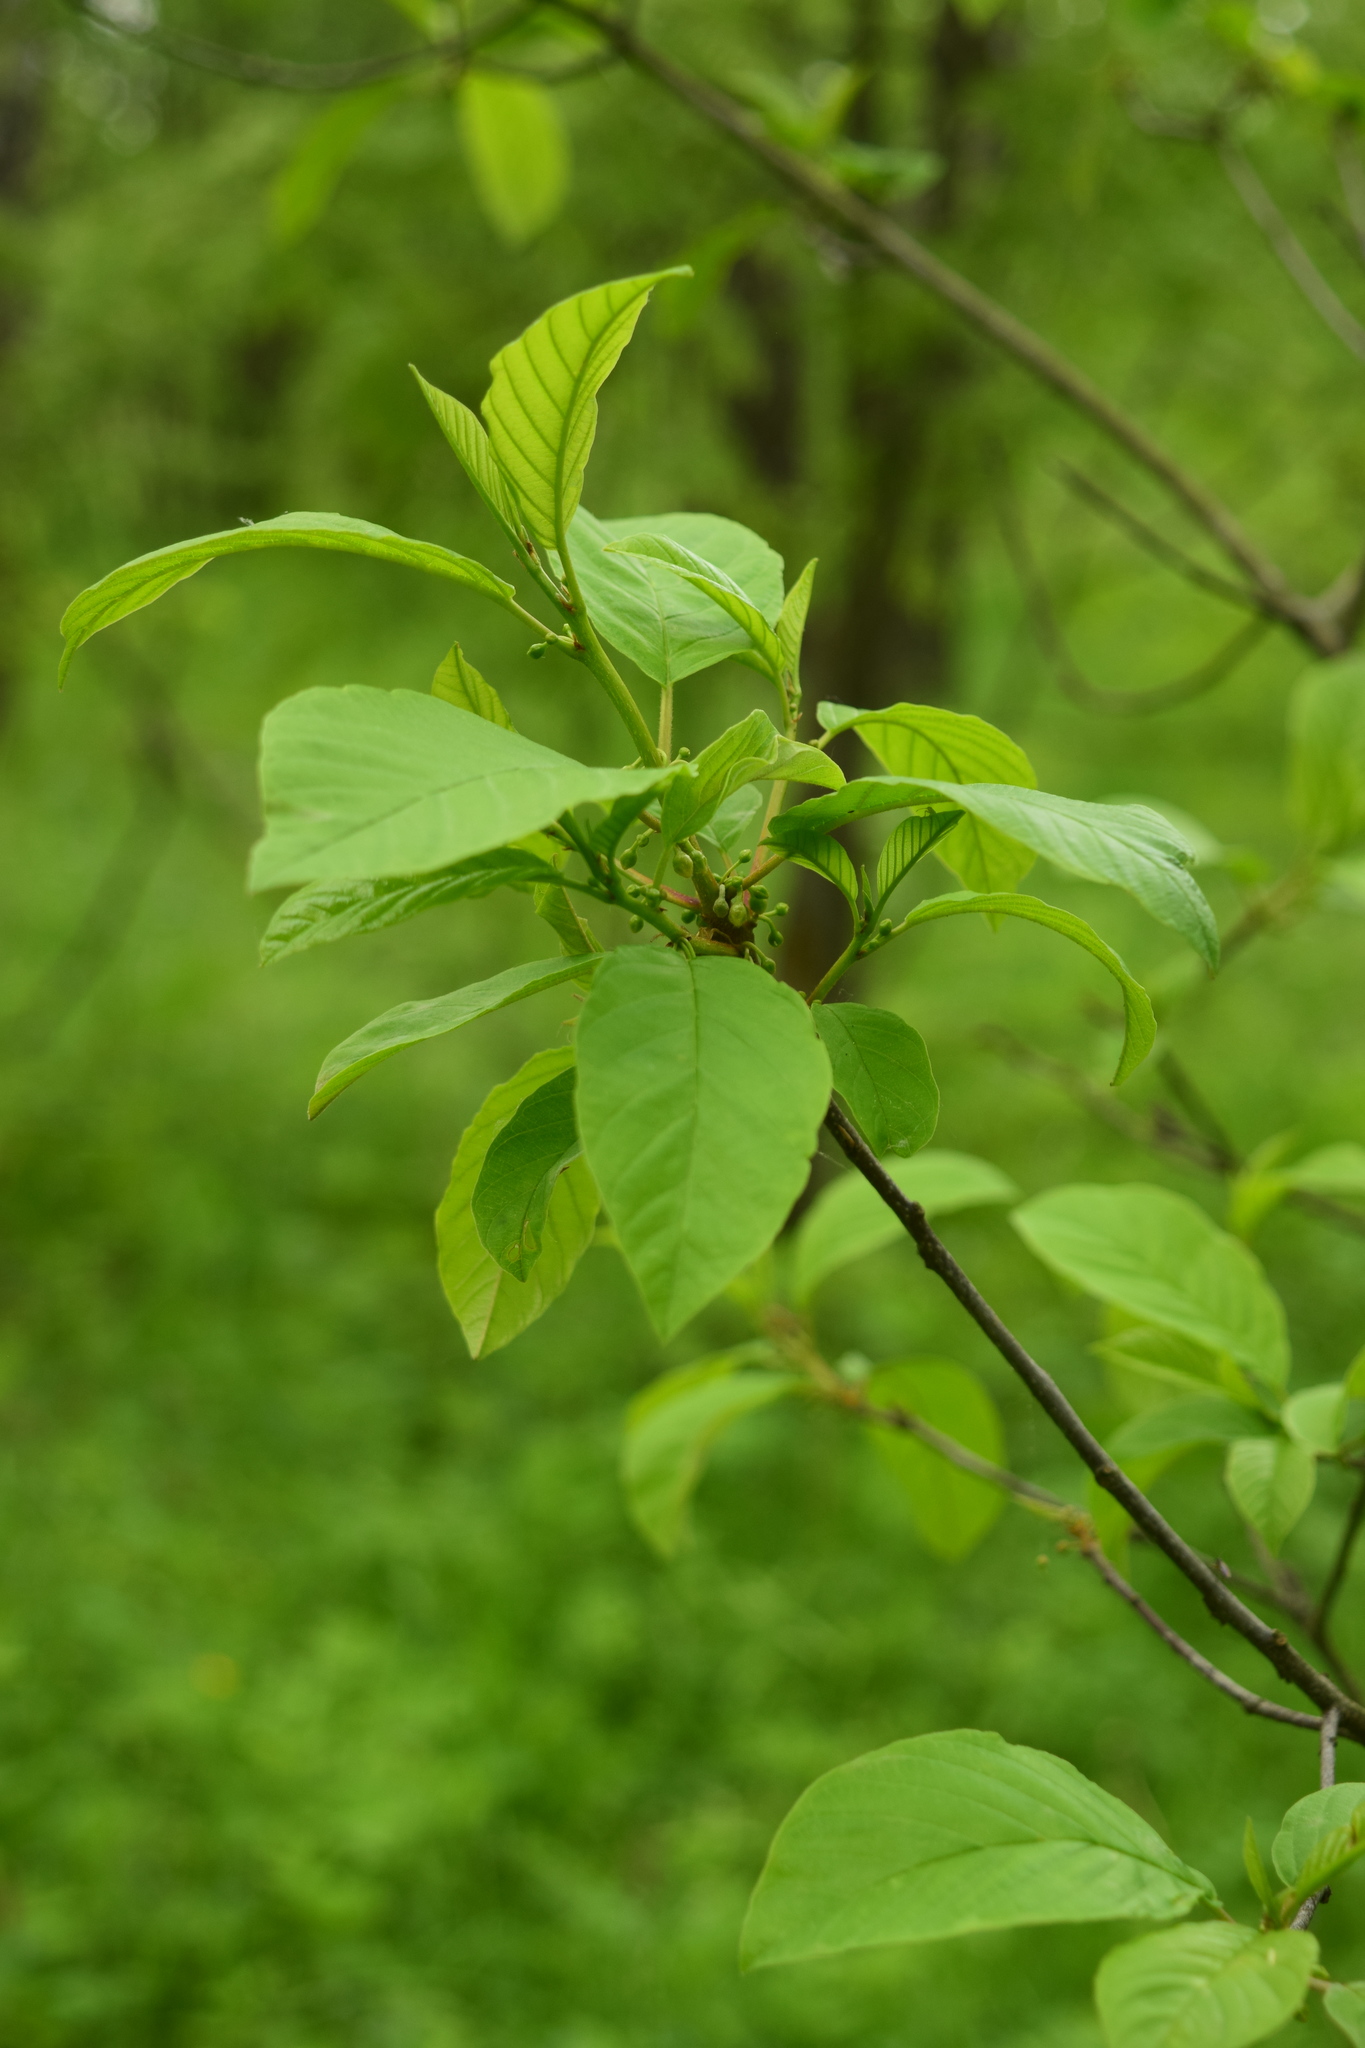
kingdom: Plantae
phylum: Tracheophyta
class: Magnoliopsida
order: Rosales
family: Rhamnaceae
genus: Frangula
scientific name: Frangula alnus
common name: Alder buckthorn
